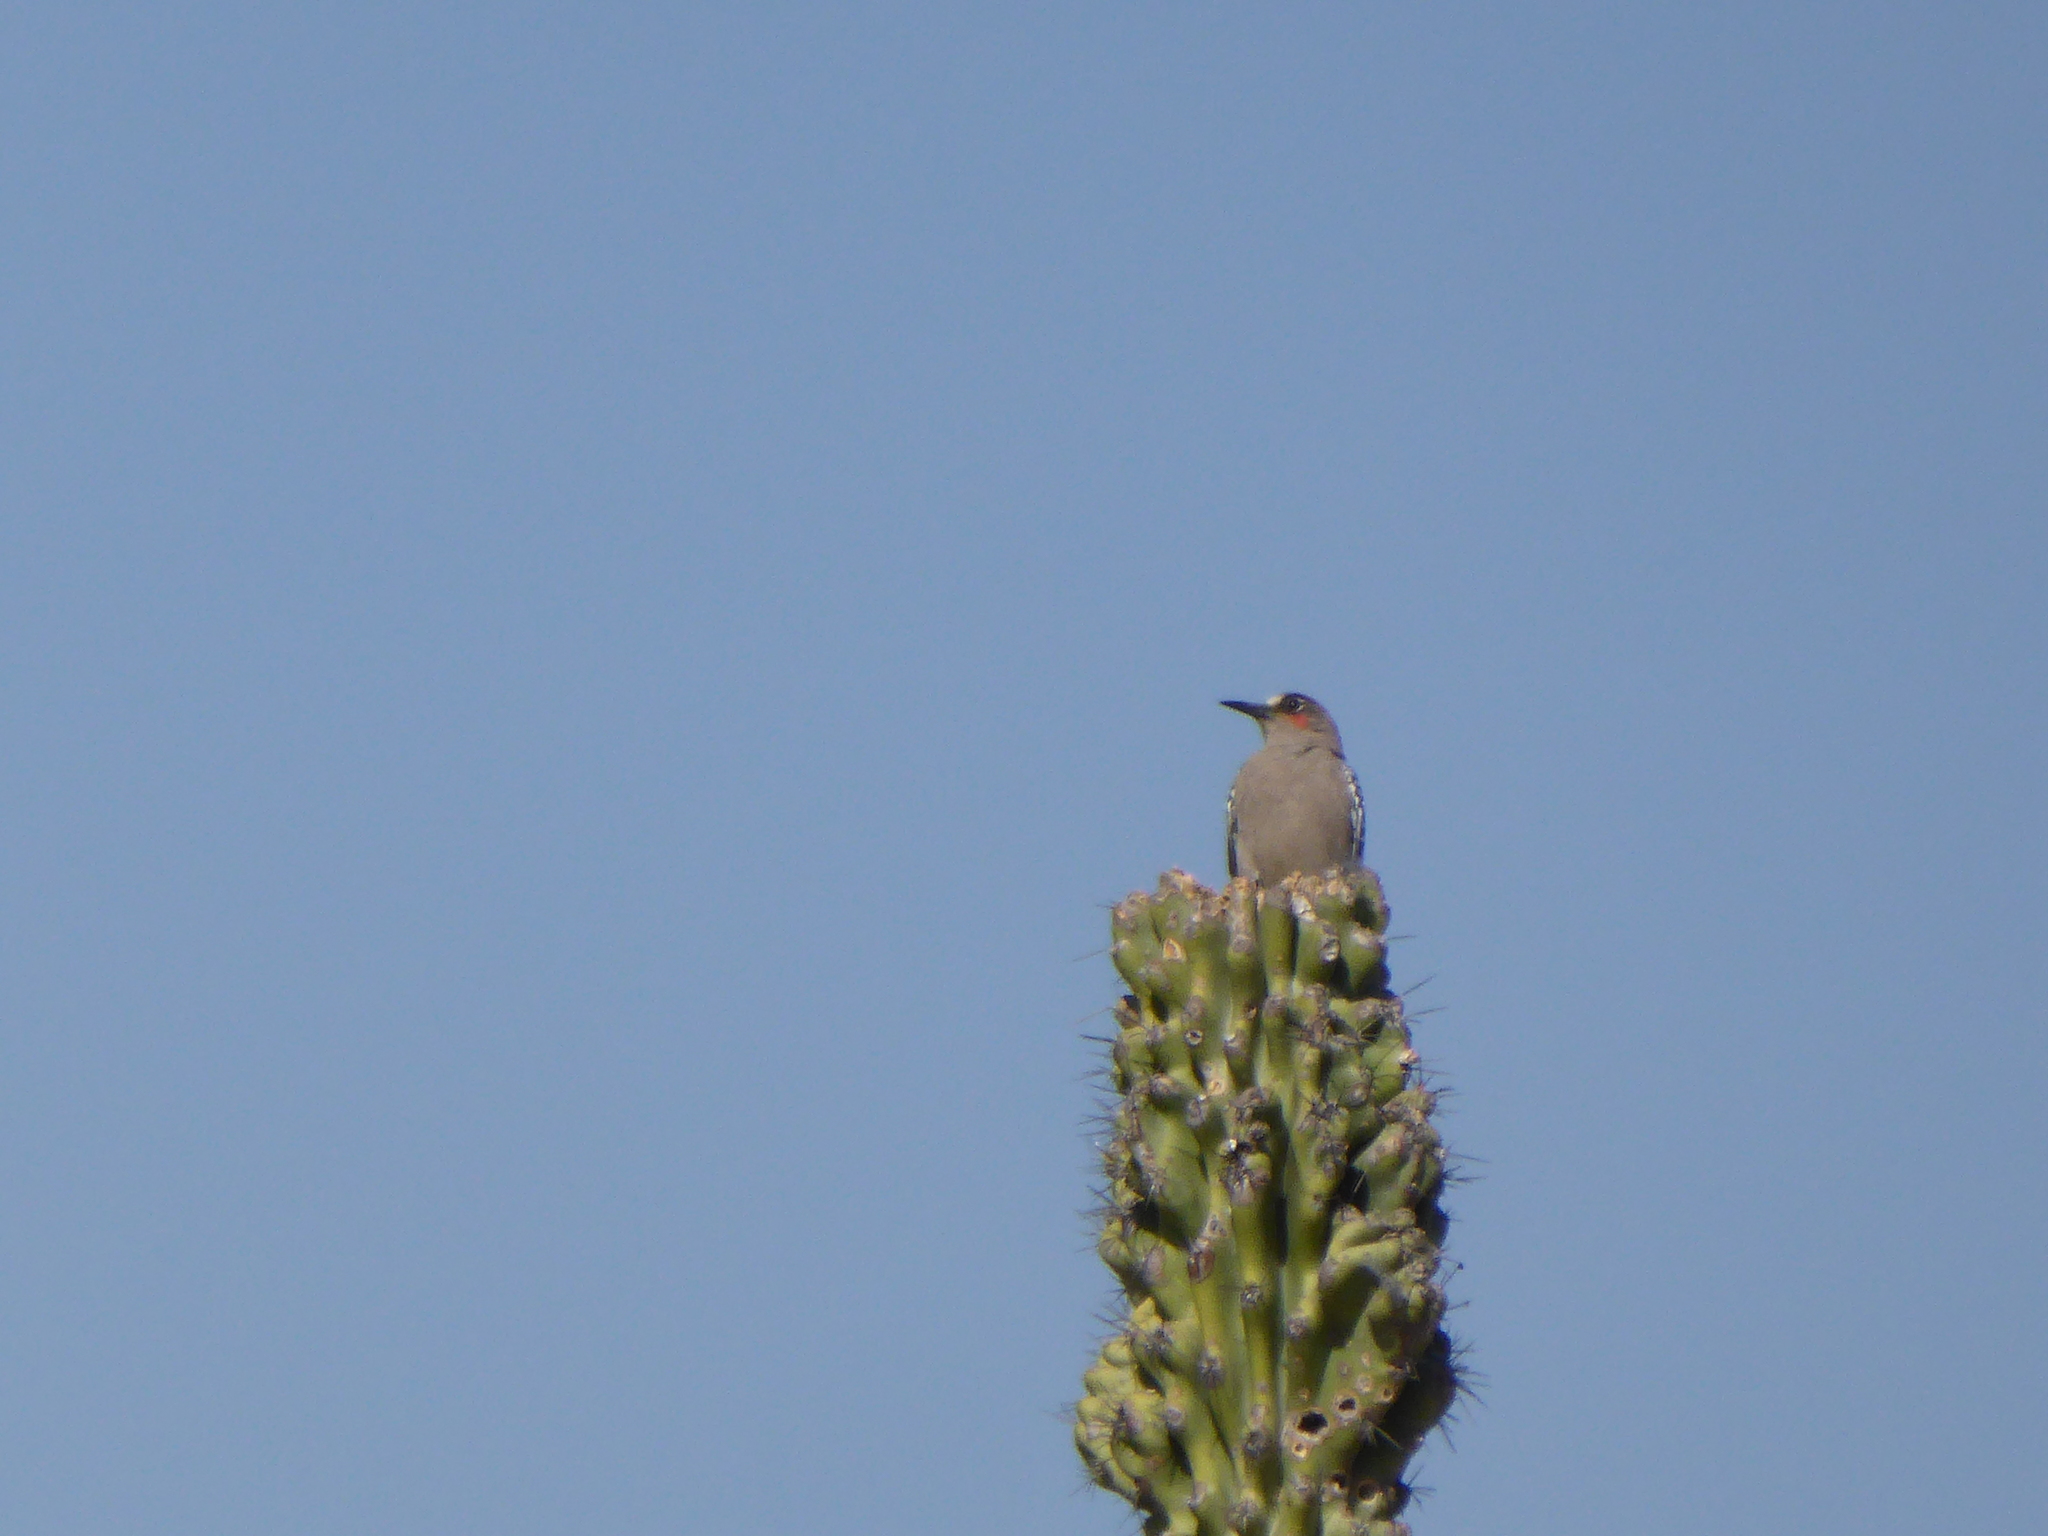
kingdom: Animalia
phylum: Chordata
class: Aves
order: Piciformes
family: Picidae
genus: Melanerpes
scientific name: Melanerpes hypopolius
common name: Grey-breasted woodpecker
